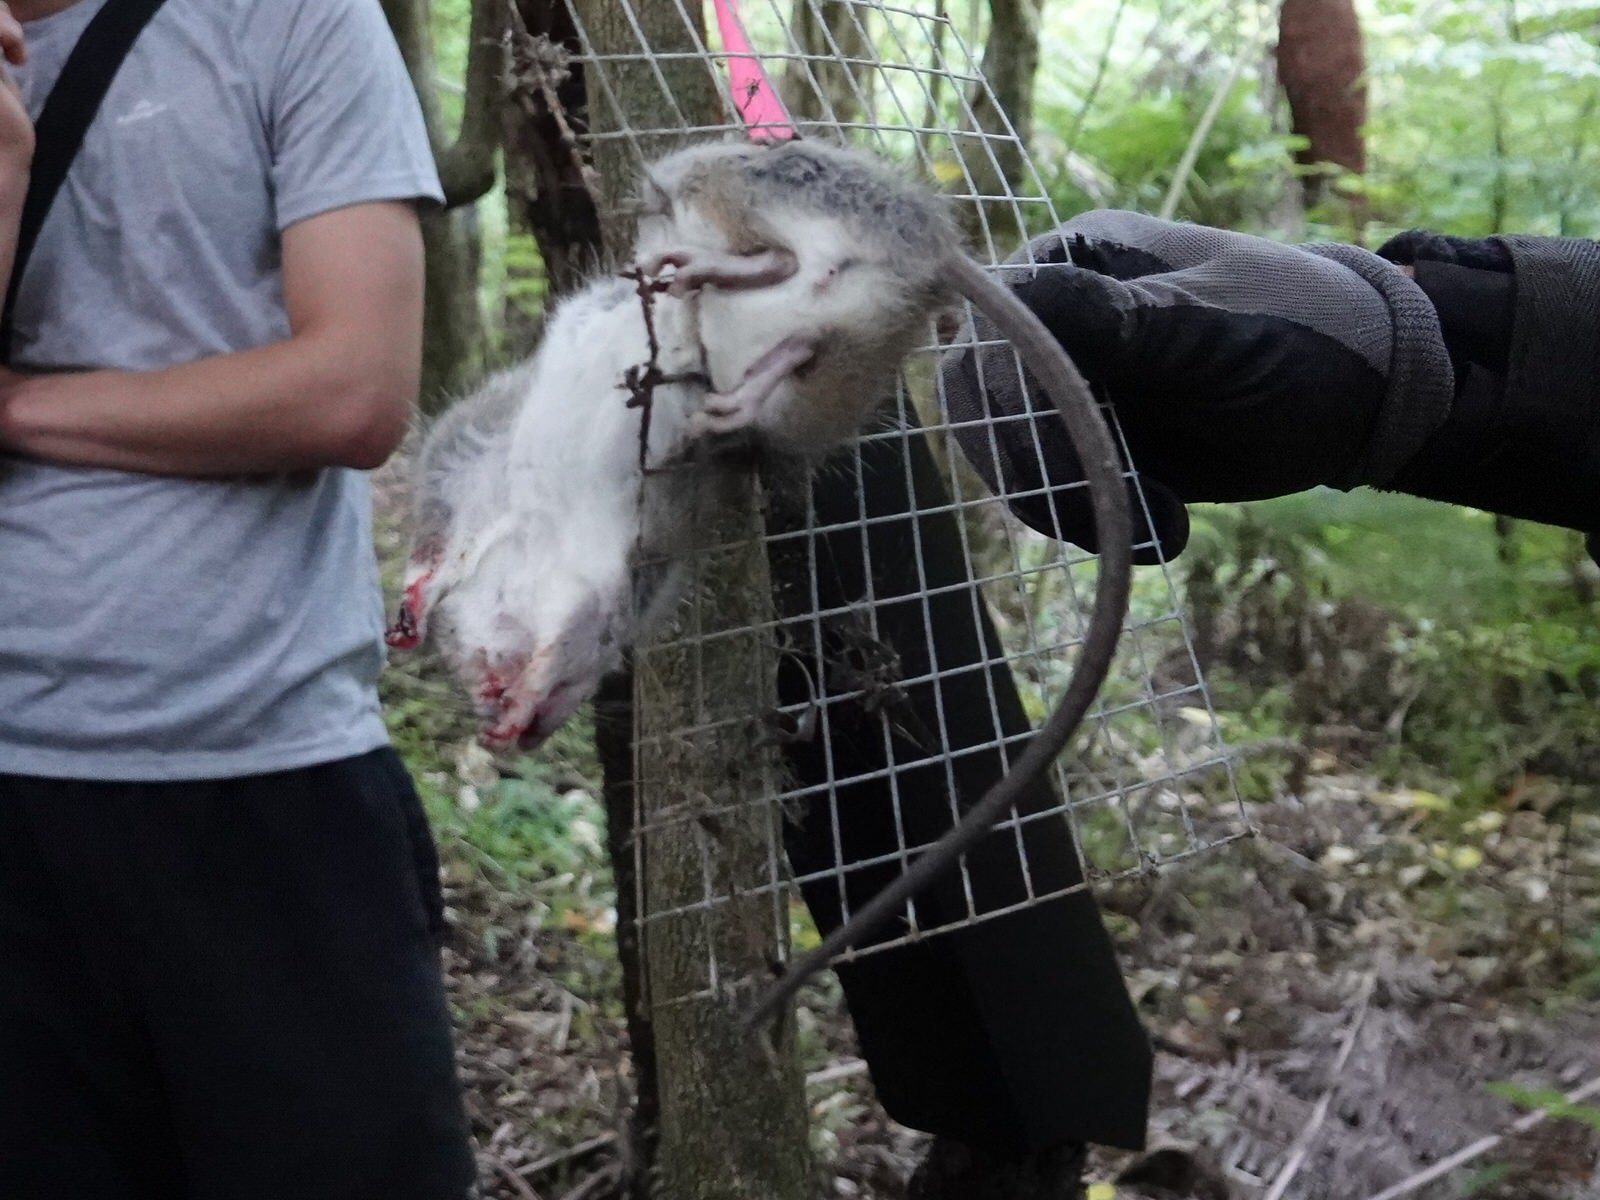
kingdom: Animalia
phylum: Chordata
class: Mammalia
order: Rodentia
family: Muridae
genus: Rattus
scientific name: Rattus rattus
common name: Black rat
